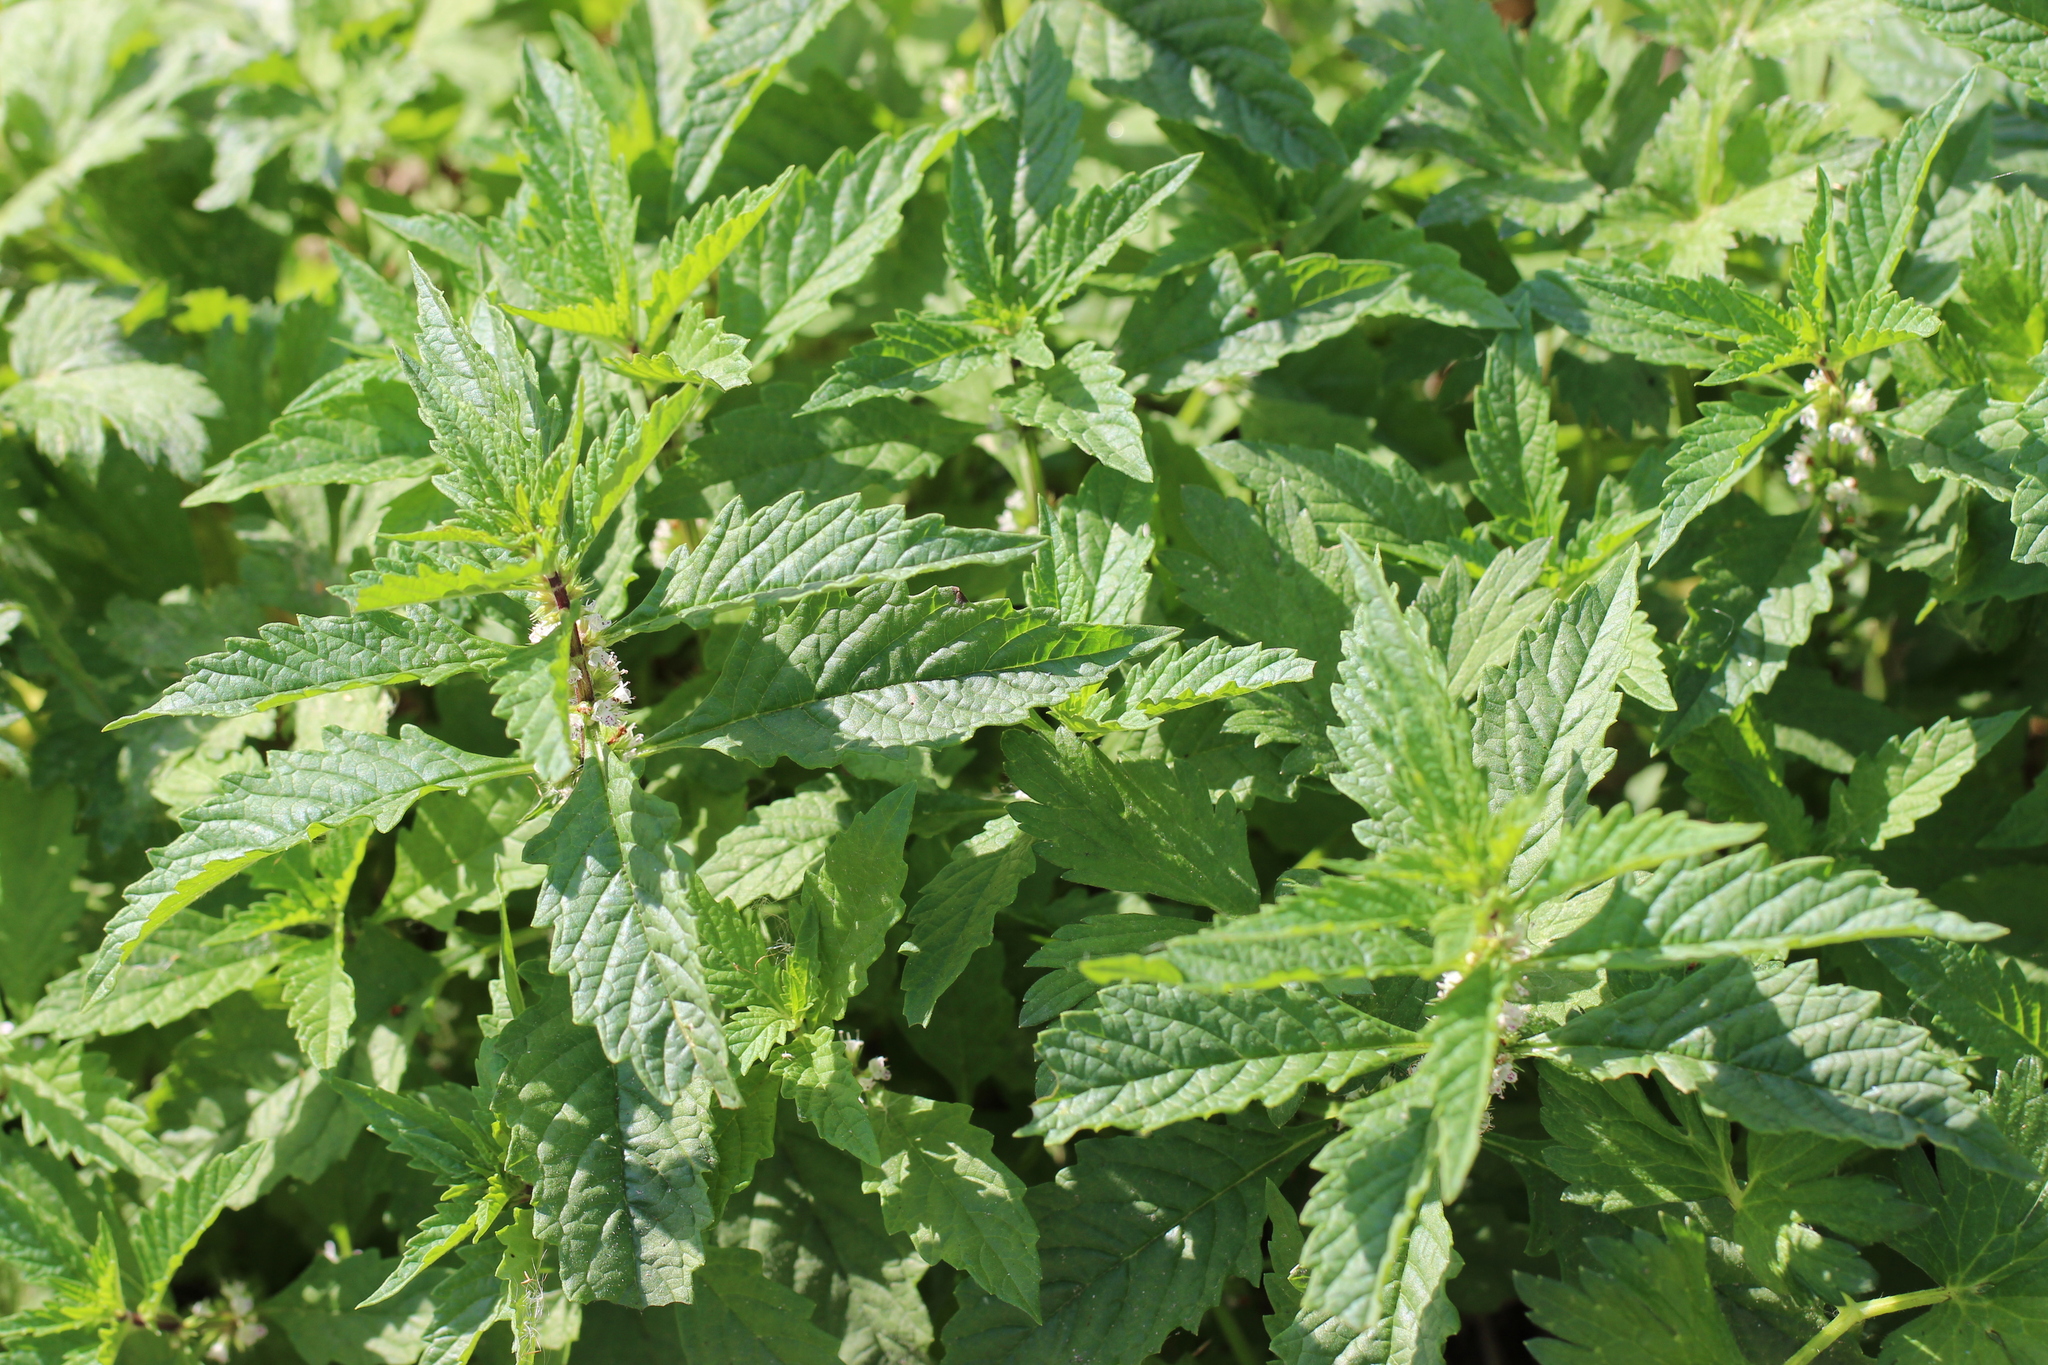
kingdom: Plantae
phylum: Tracheophyta
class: Magnoliopsida
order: Lamiales
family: Lamiaceae
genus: Lycopus
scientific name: Lycopus europaeus
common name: European bugleweed
